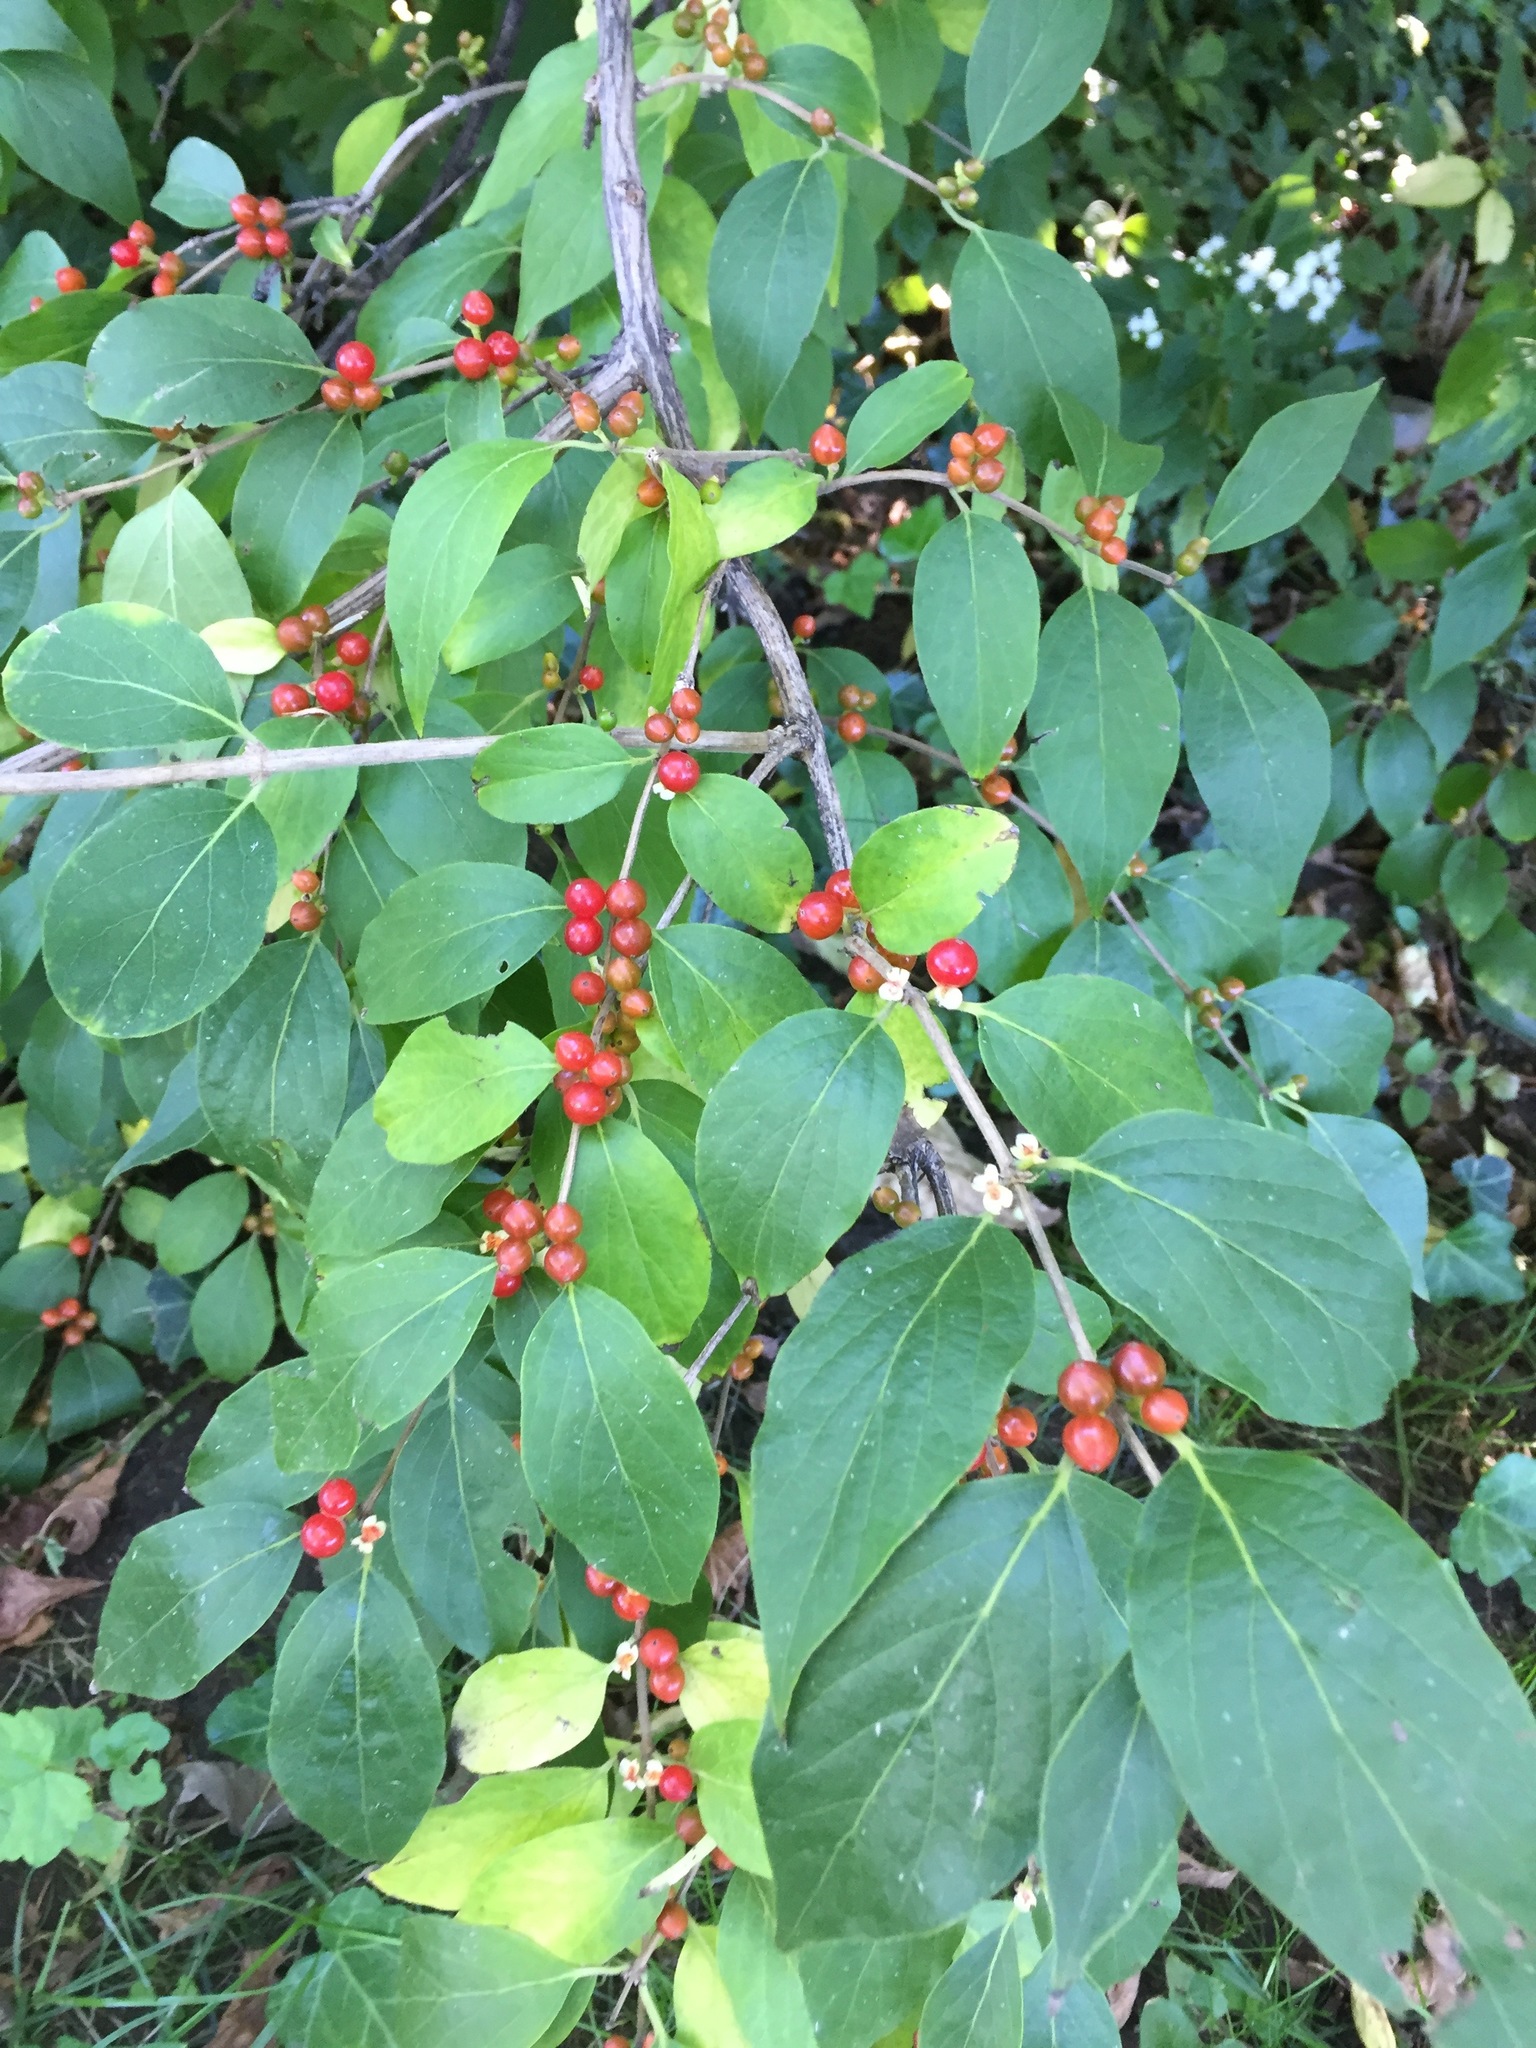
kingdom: Plantae
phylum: Tracheophyta
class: Magnoliopsida
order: Dipsacales
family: Caprifoliaceae
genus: Lonicera
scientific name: Lonicera maackii
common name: Amur honeysuckle
